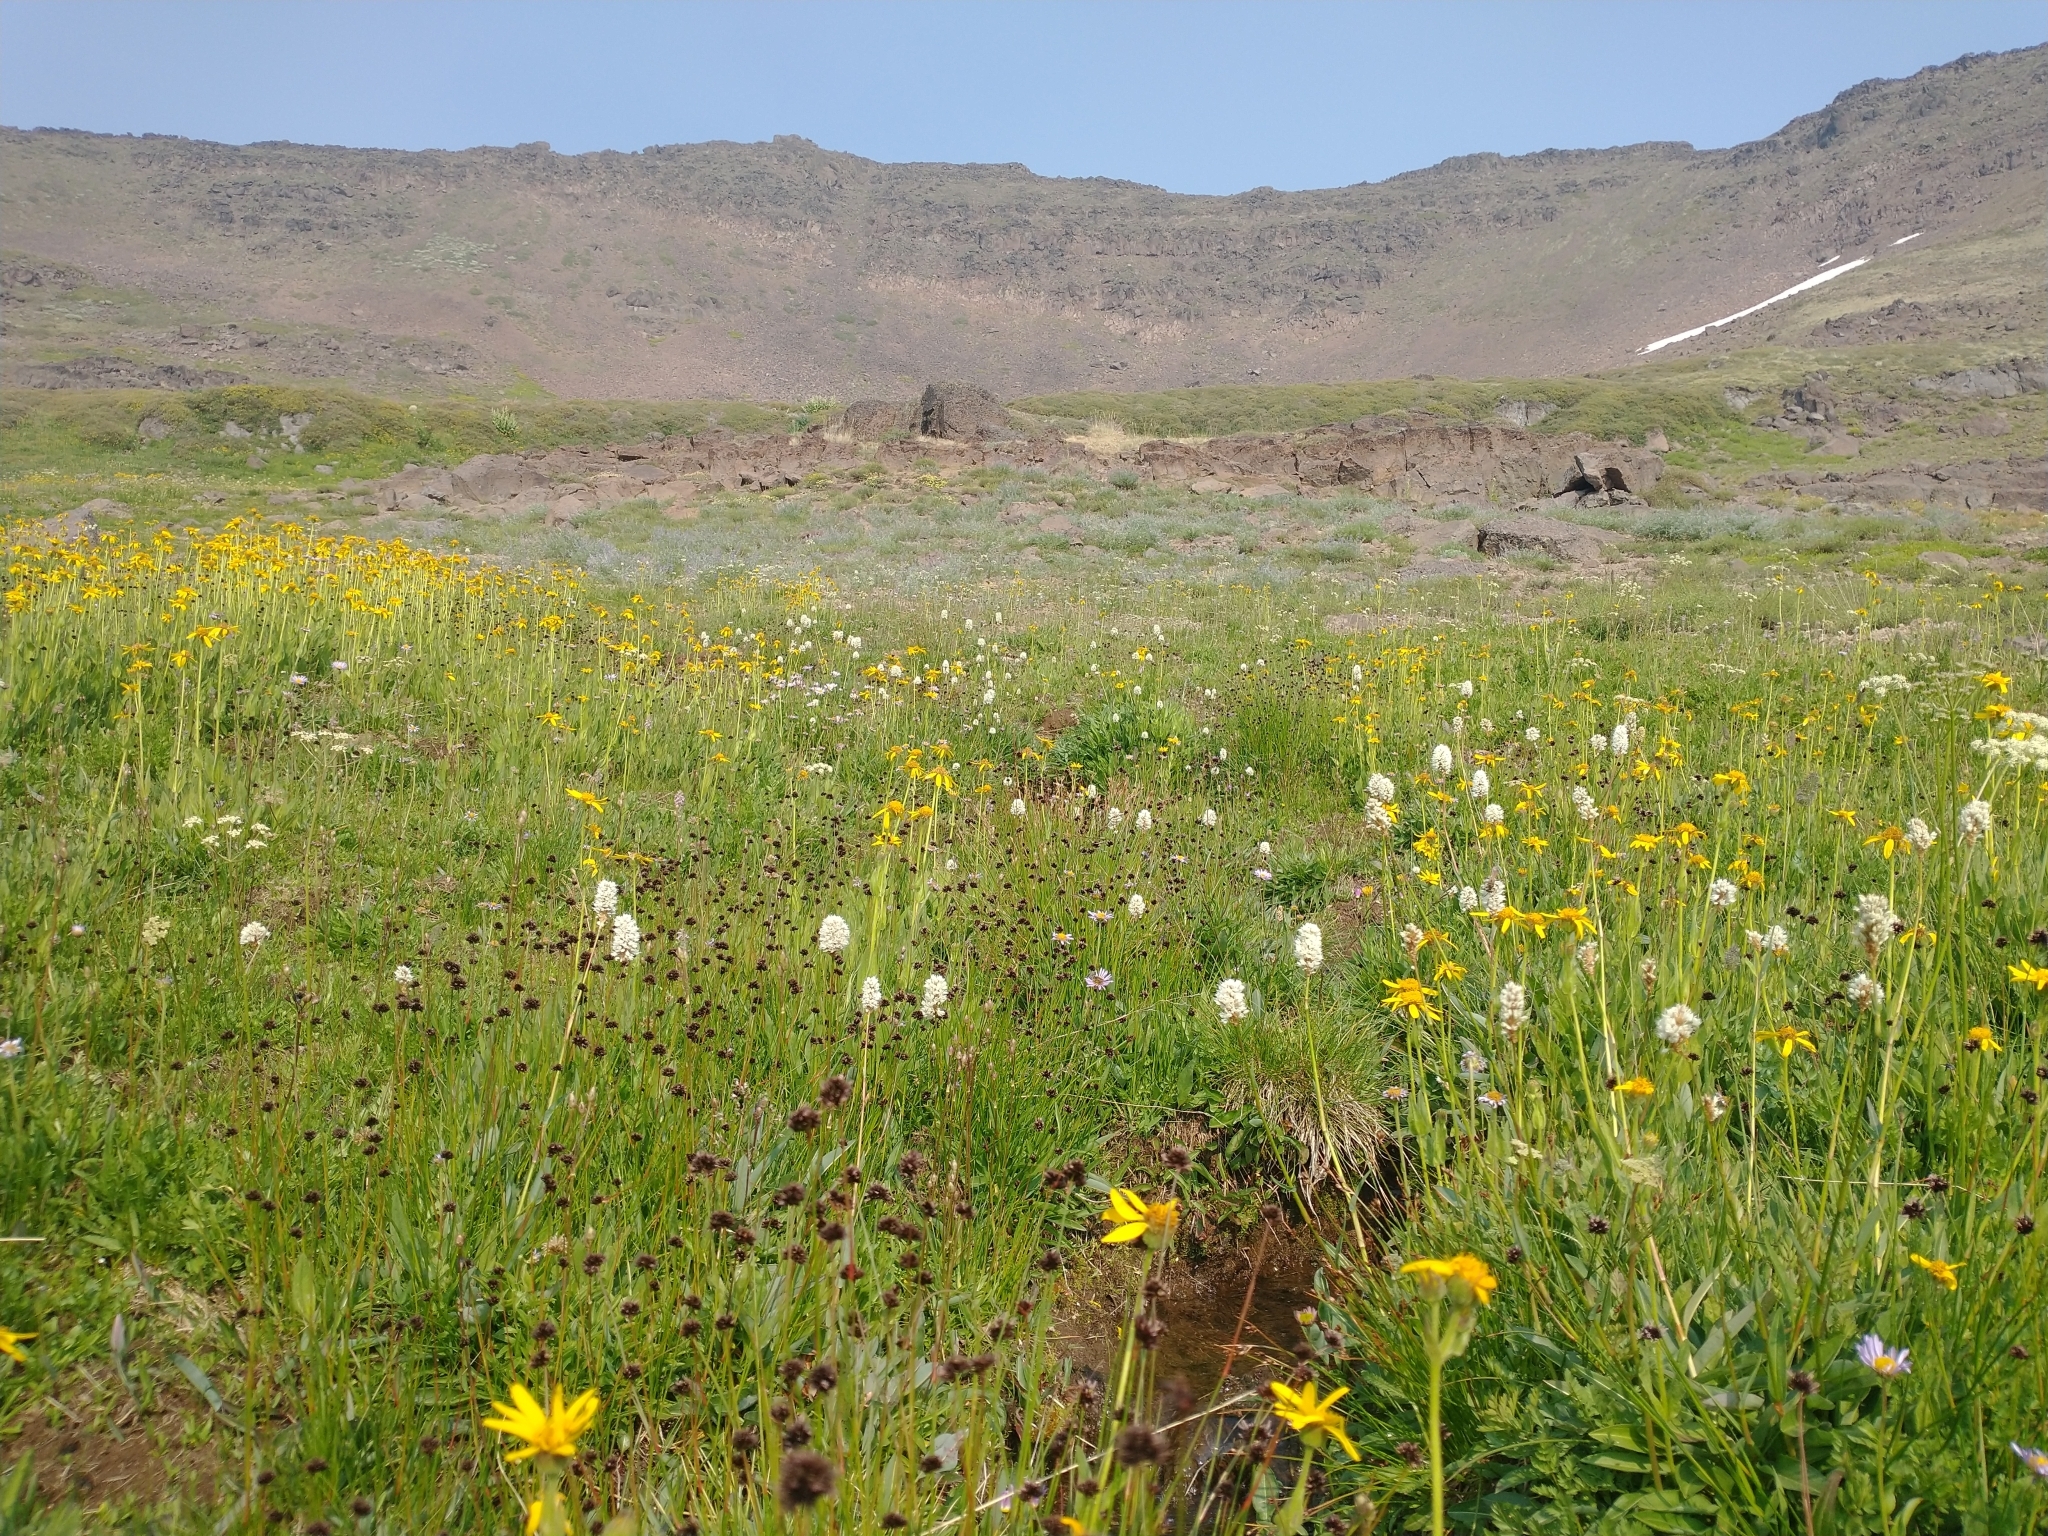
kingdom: Plantae
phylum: Tracheophyta
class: Magnoliopsida
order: Caryophyllales
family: Polygonaceae
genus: Bistorta
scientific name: Bistorta bistortoides
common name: American bistort
